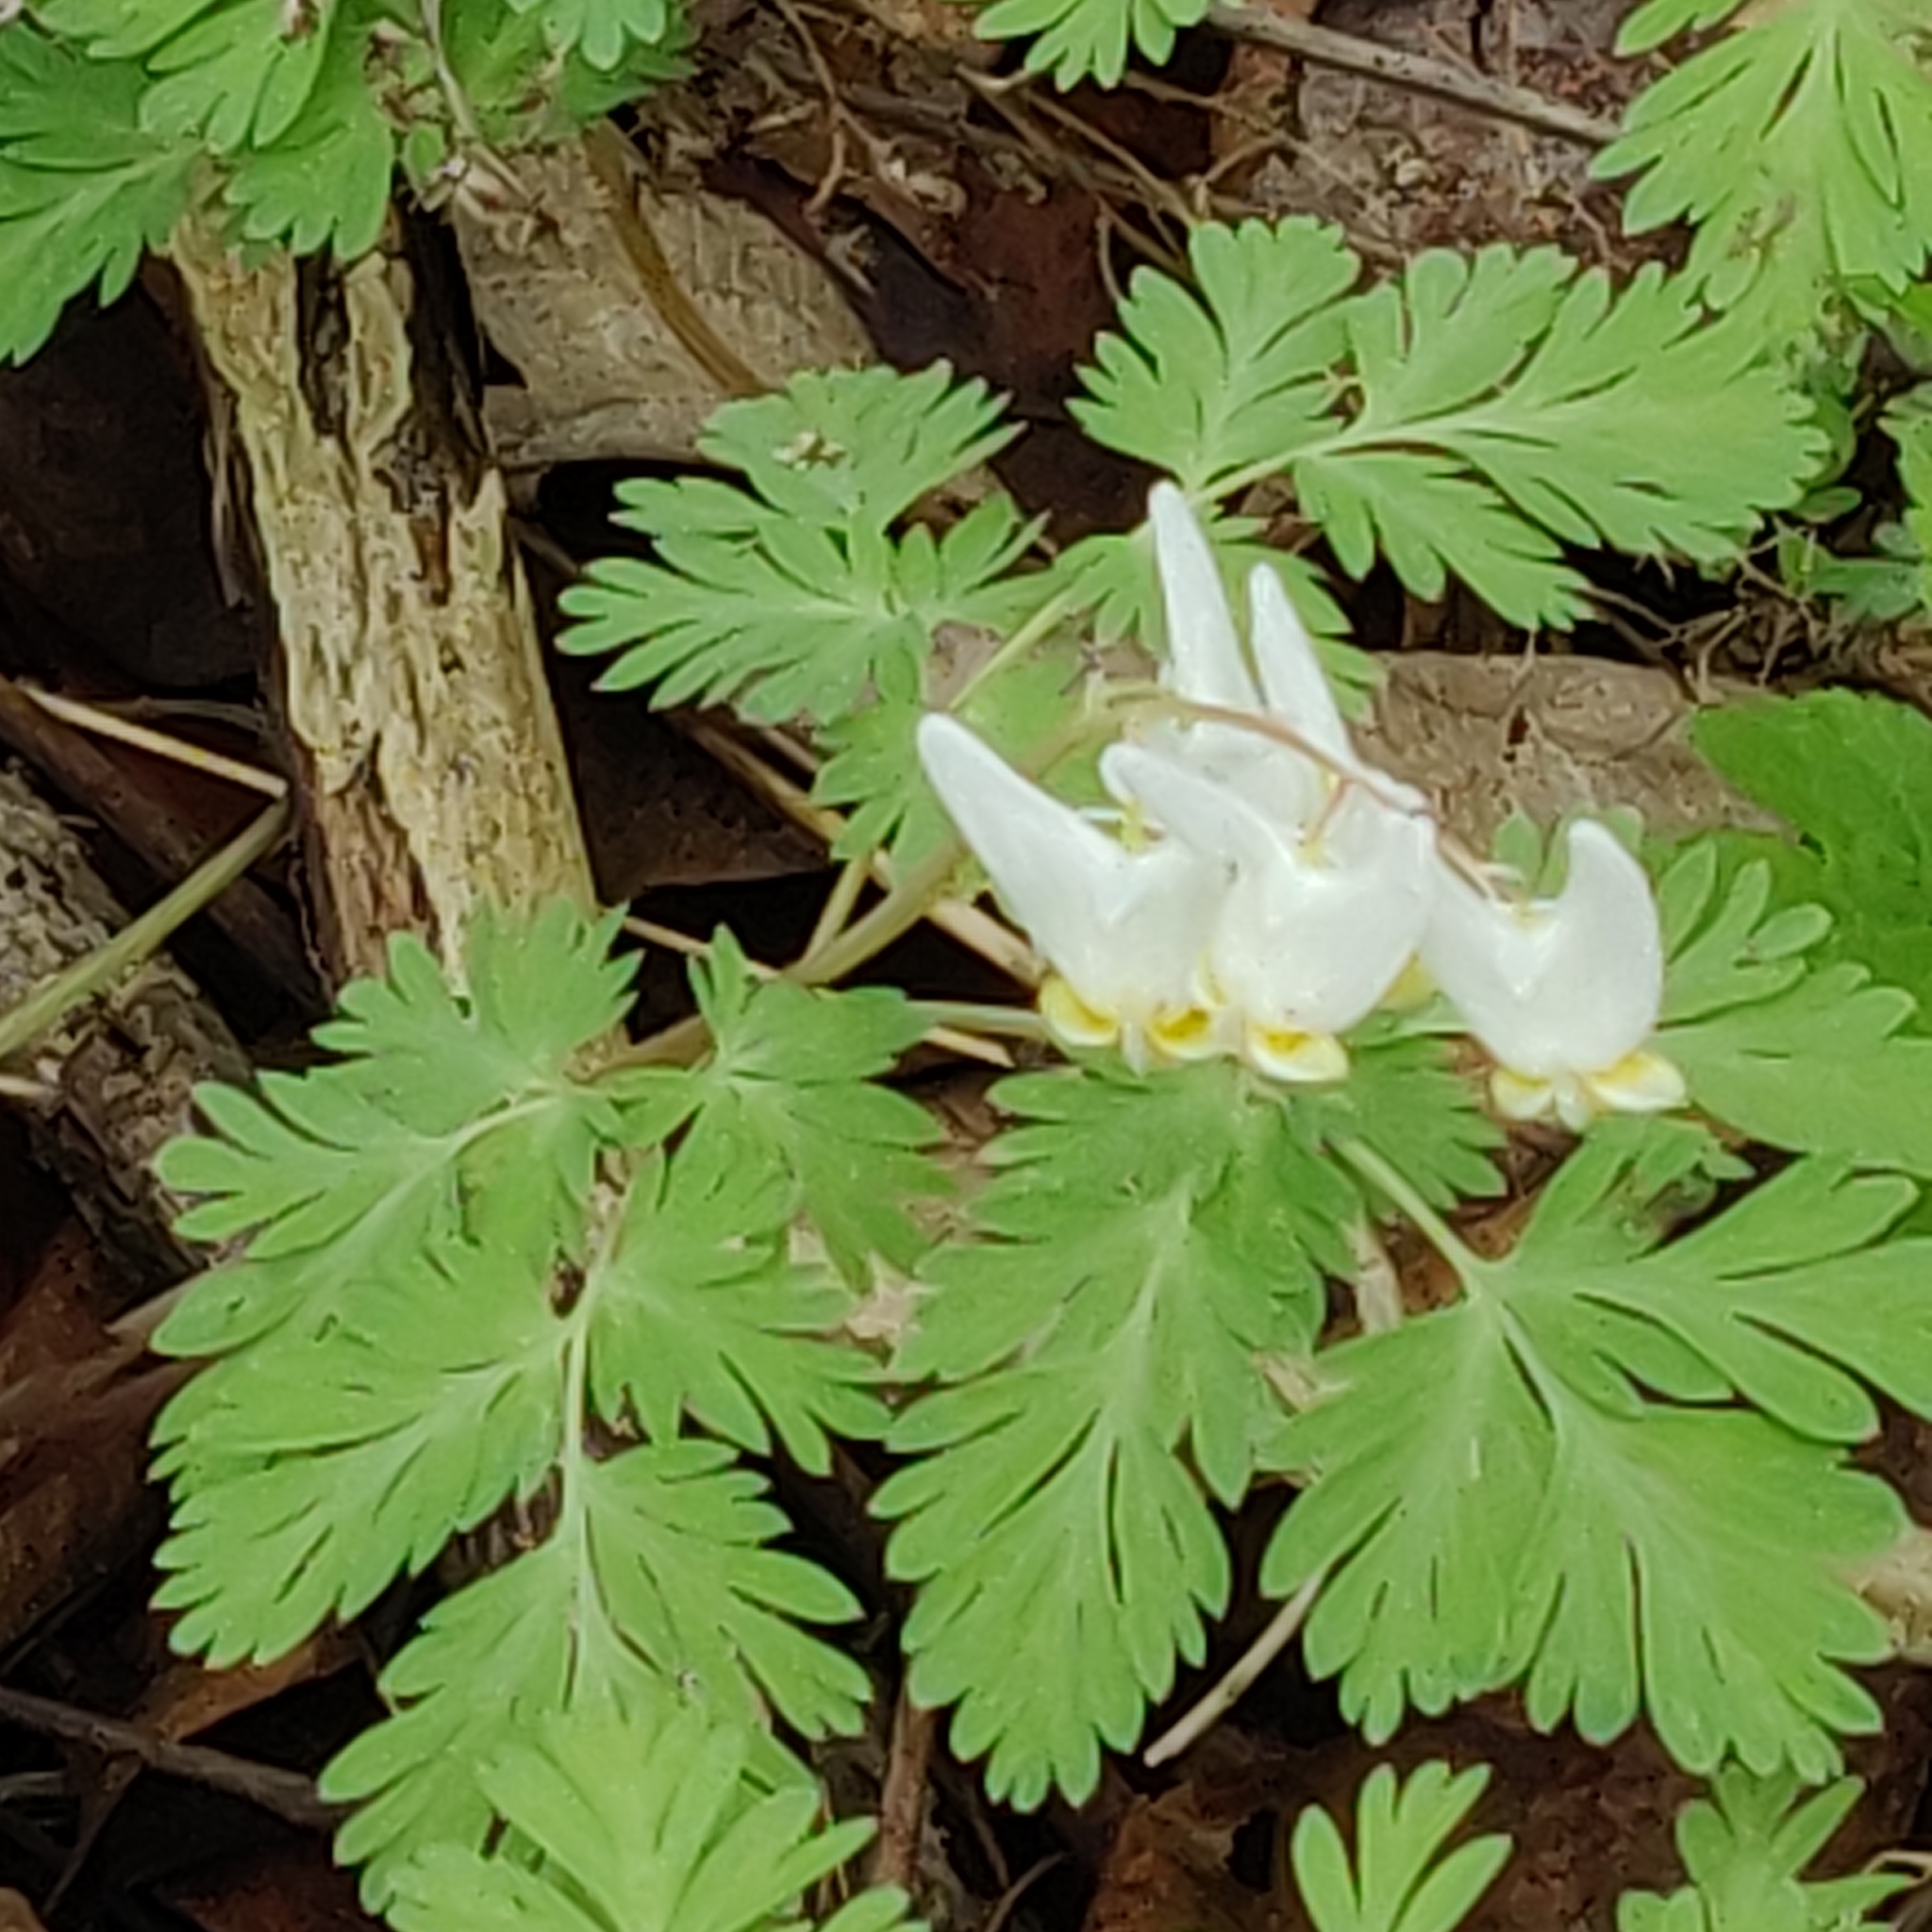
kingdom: Plantae
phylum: Tracheophyta
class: Magnoliopsida
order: Ranunculales
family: Papaveraceae
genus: Dicentra
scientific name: Dicentra cucullaria
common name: Dutchman's breeches
